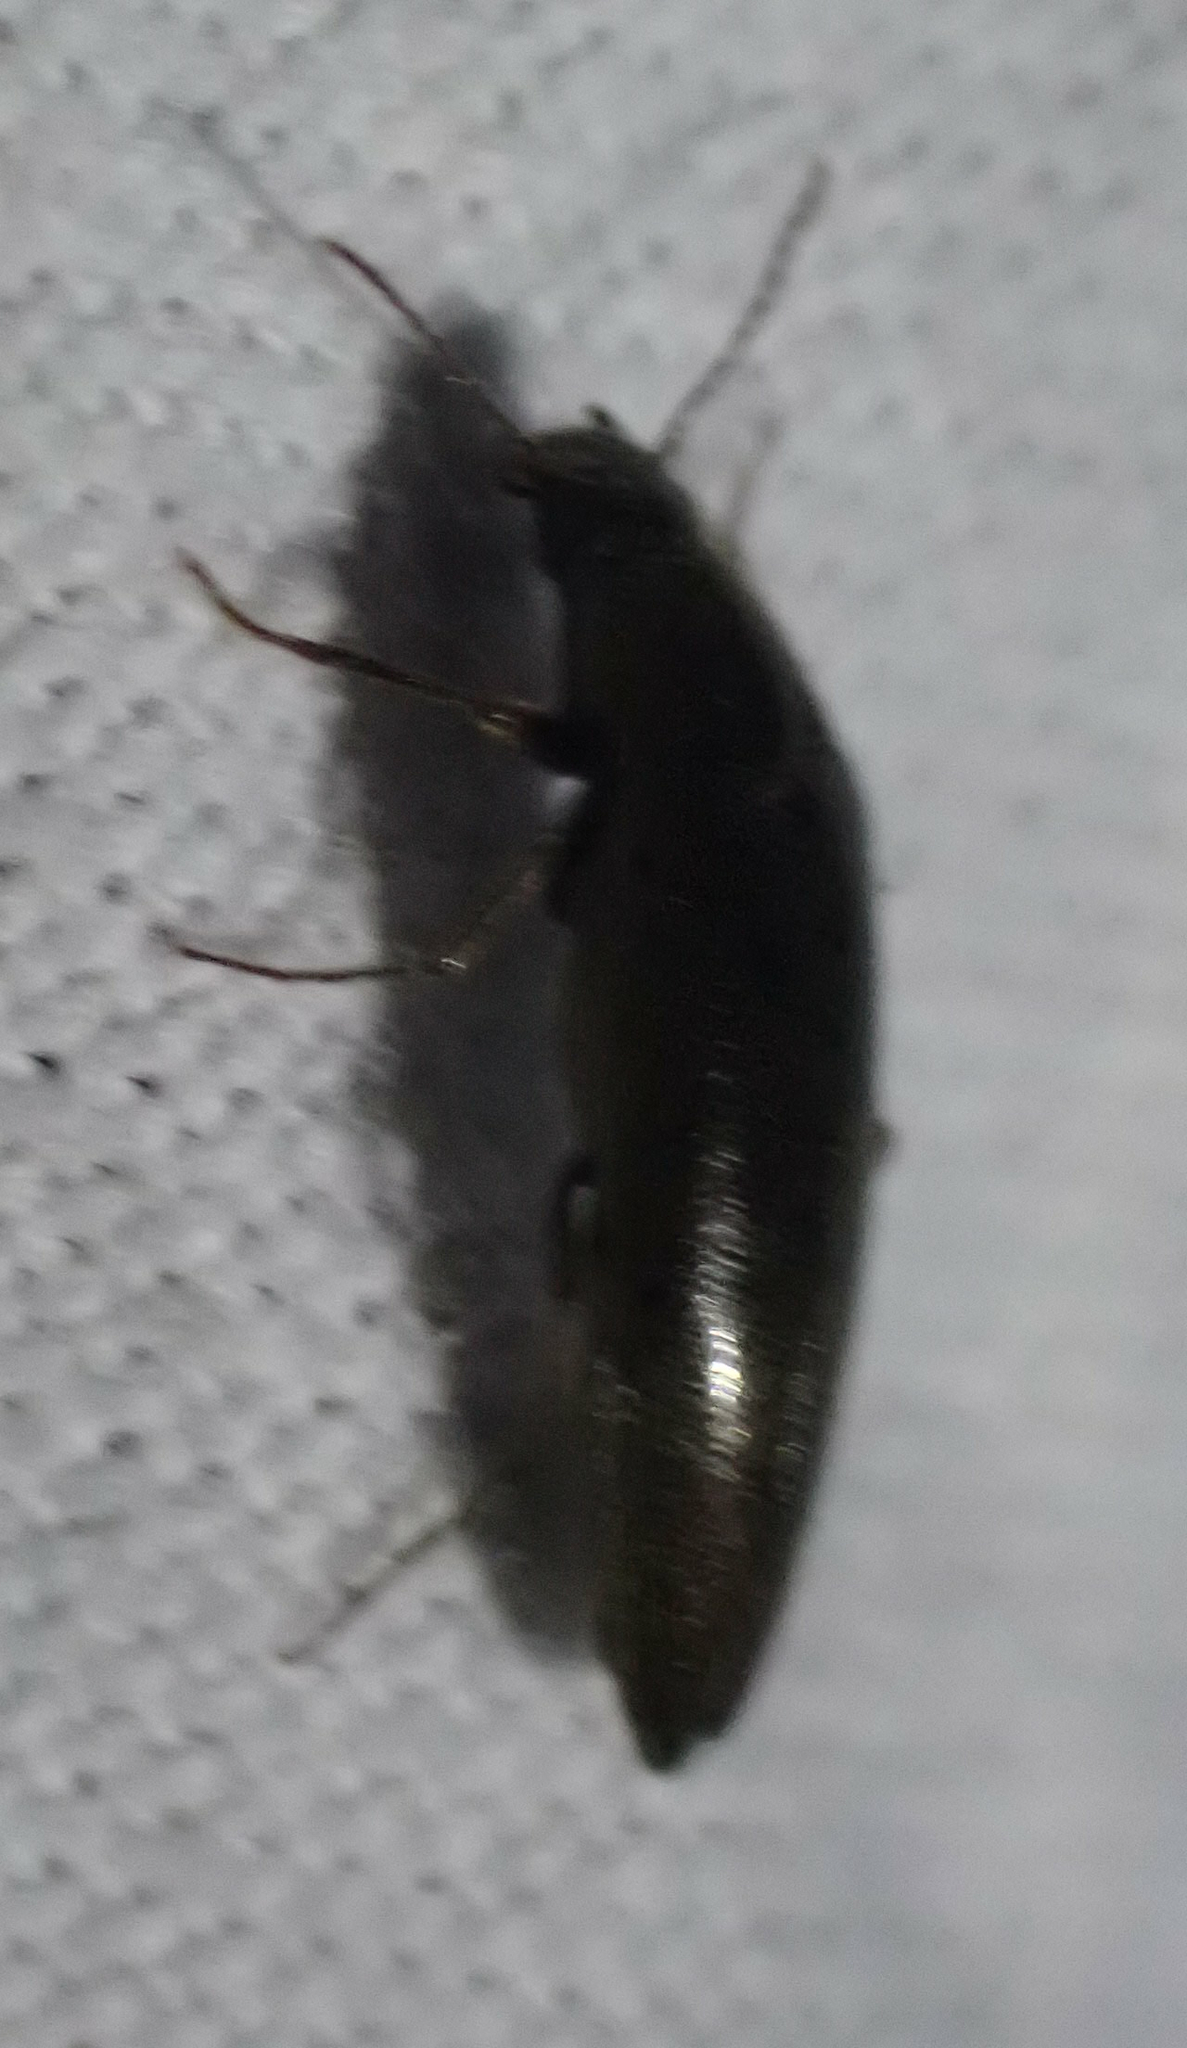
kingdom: Animalia
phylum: Arthropoda
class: Insecta
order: Coleoptera
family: Synchroidae
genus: Synchroa
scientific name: Synchroa punctata
